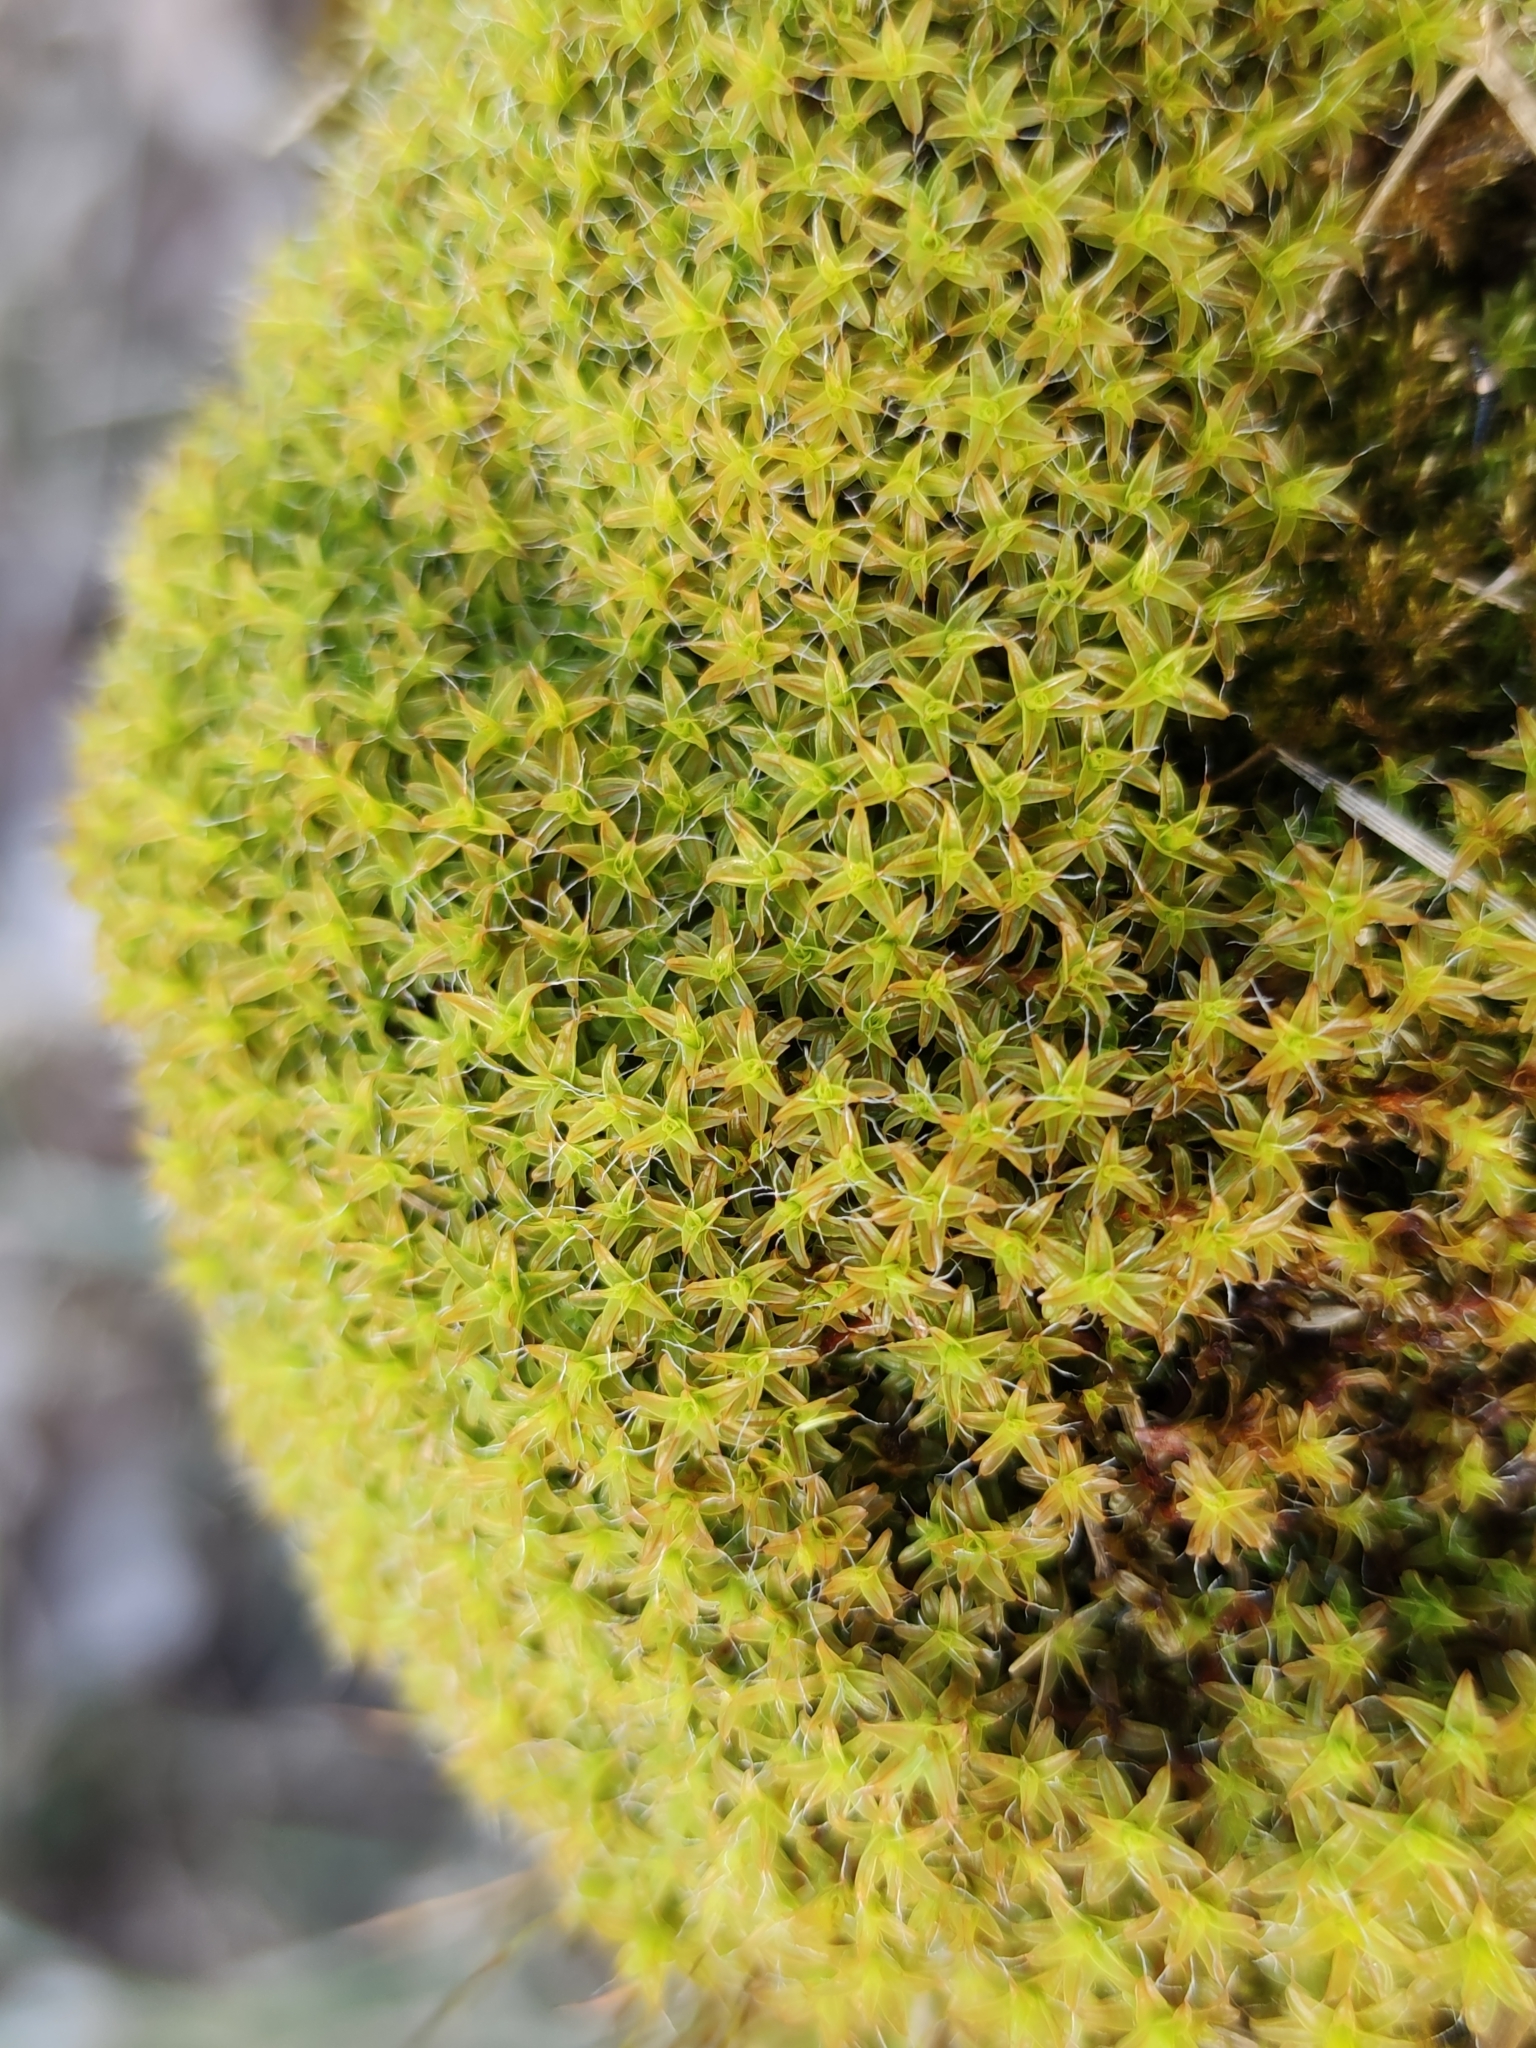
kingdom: Plantae
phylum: Bryophyta
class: Bryopsida
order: Pottiales
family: Pottiaceae
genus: Syntrichia
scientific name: Syntrichia ruralis
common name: Sidewalk screw moss
